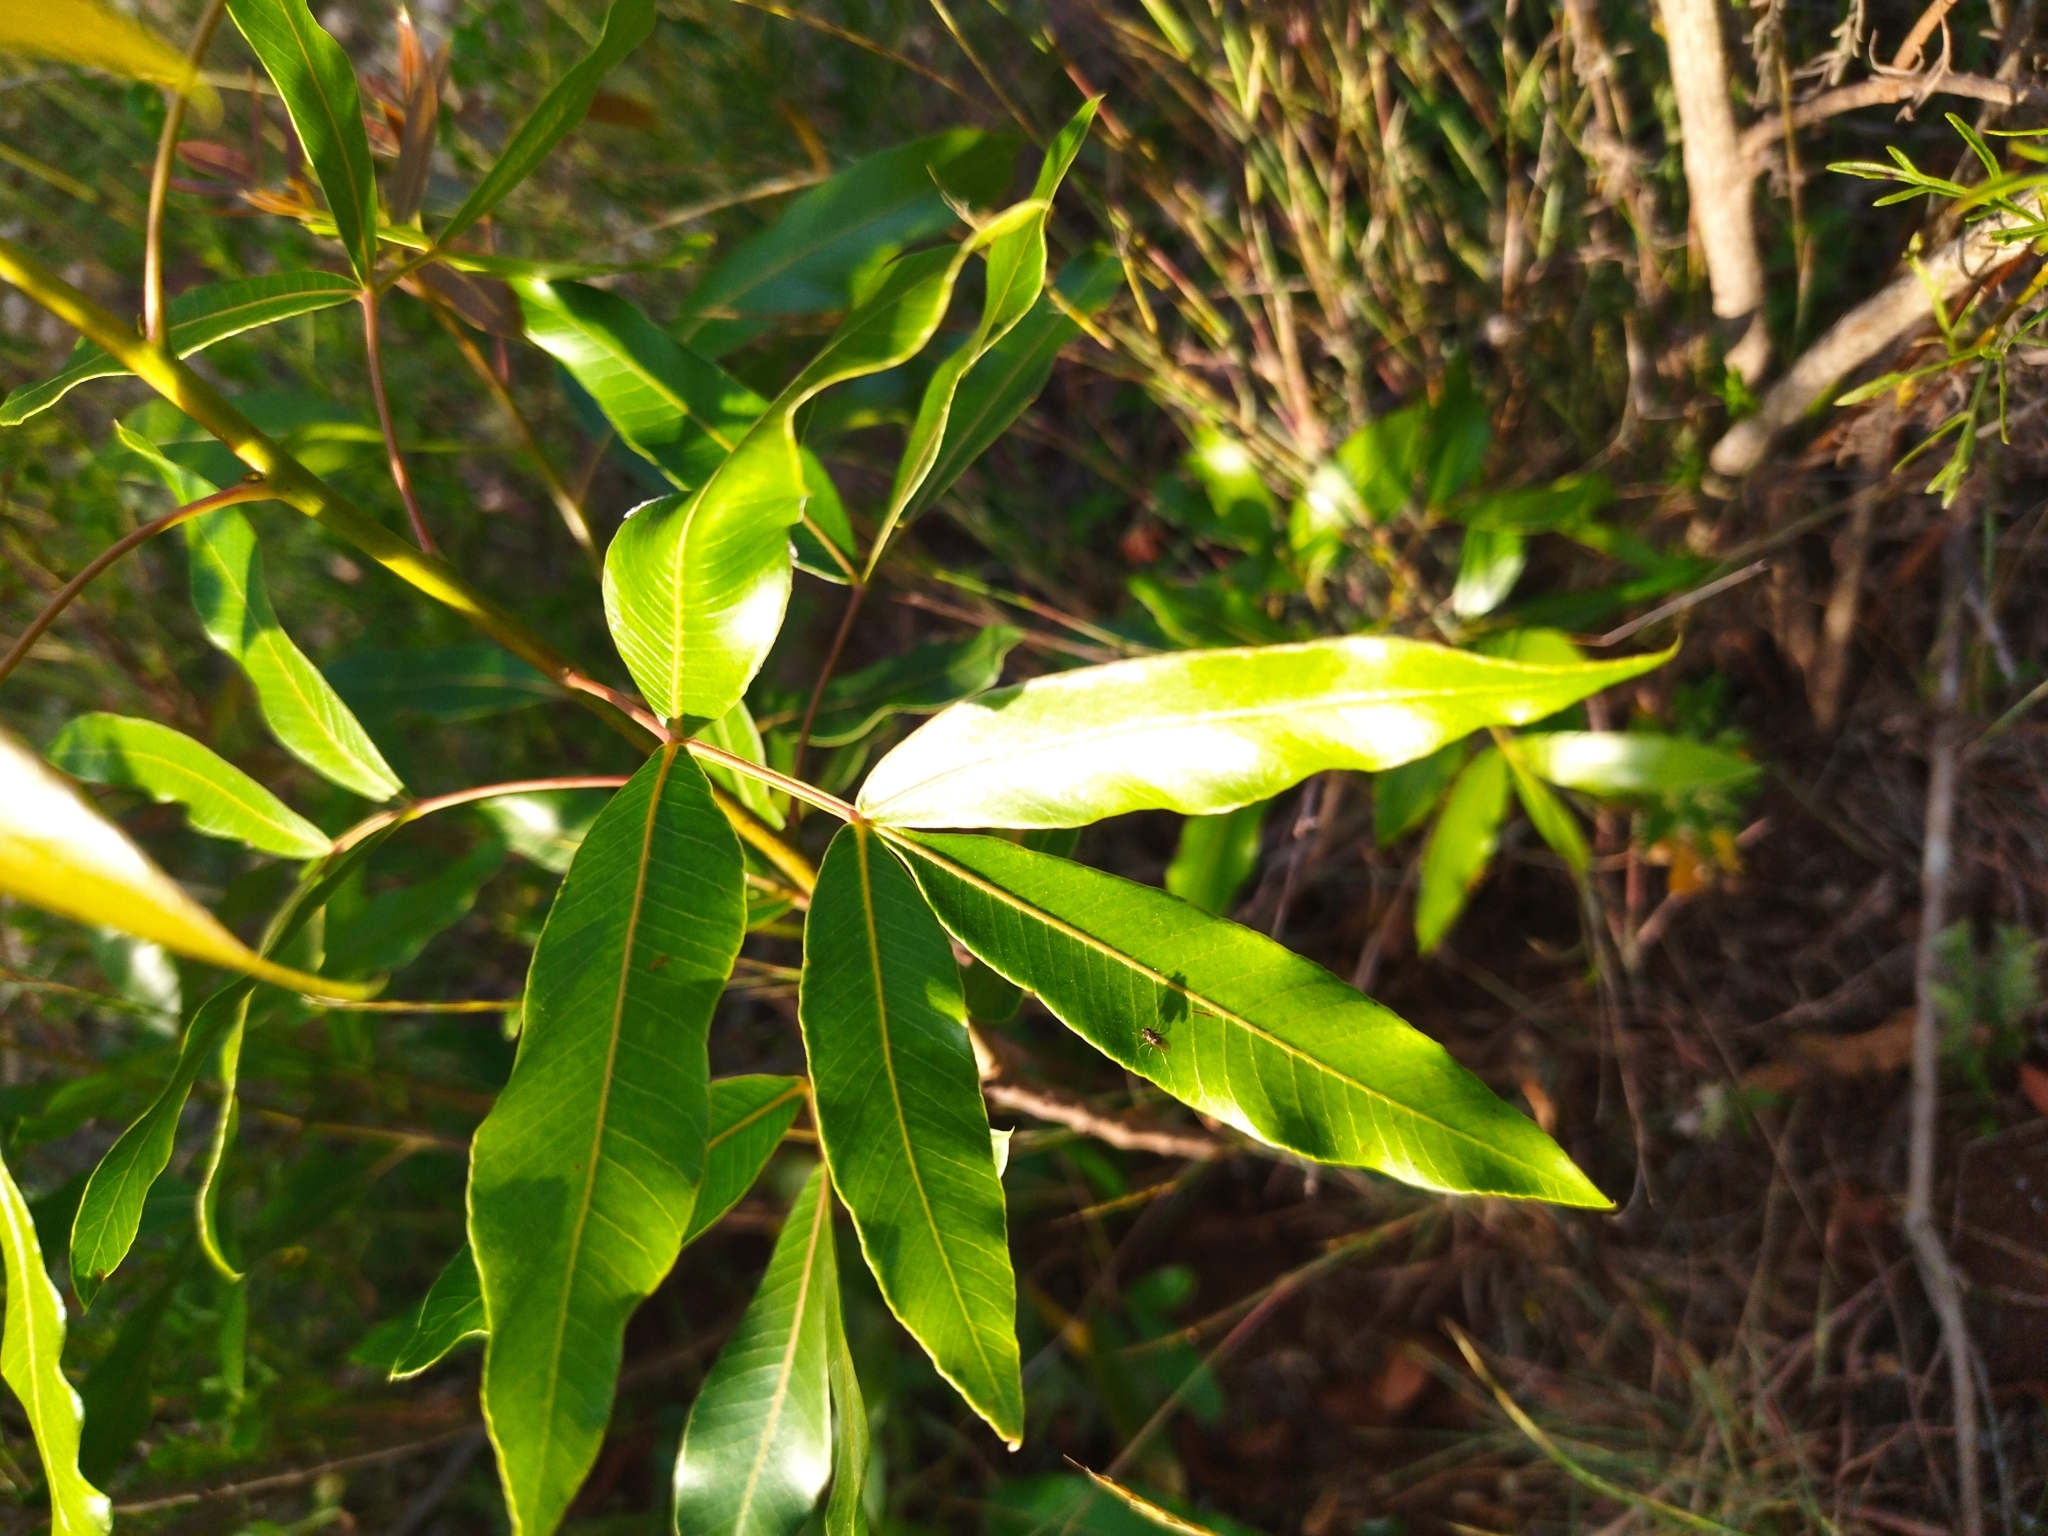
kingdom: Plantae
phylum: Tracheophyta
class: Magnoliopsida
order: Sapindales
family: Anacardiaceae
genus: Lithraea
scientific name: Lithraea molleoides
